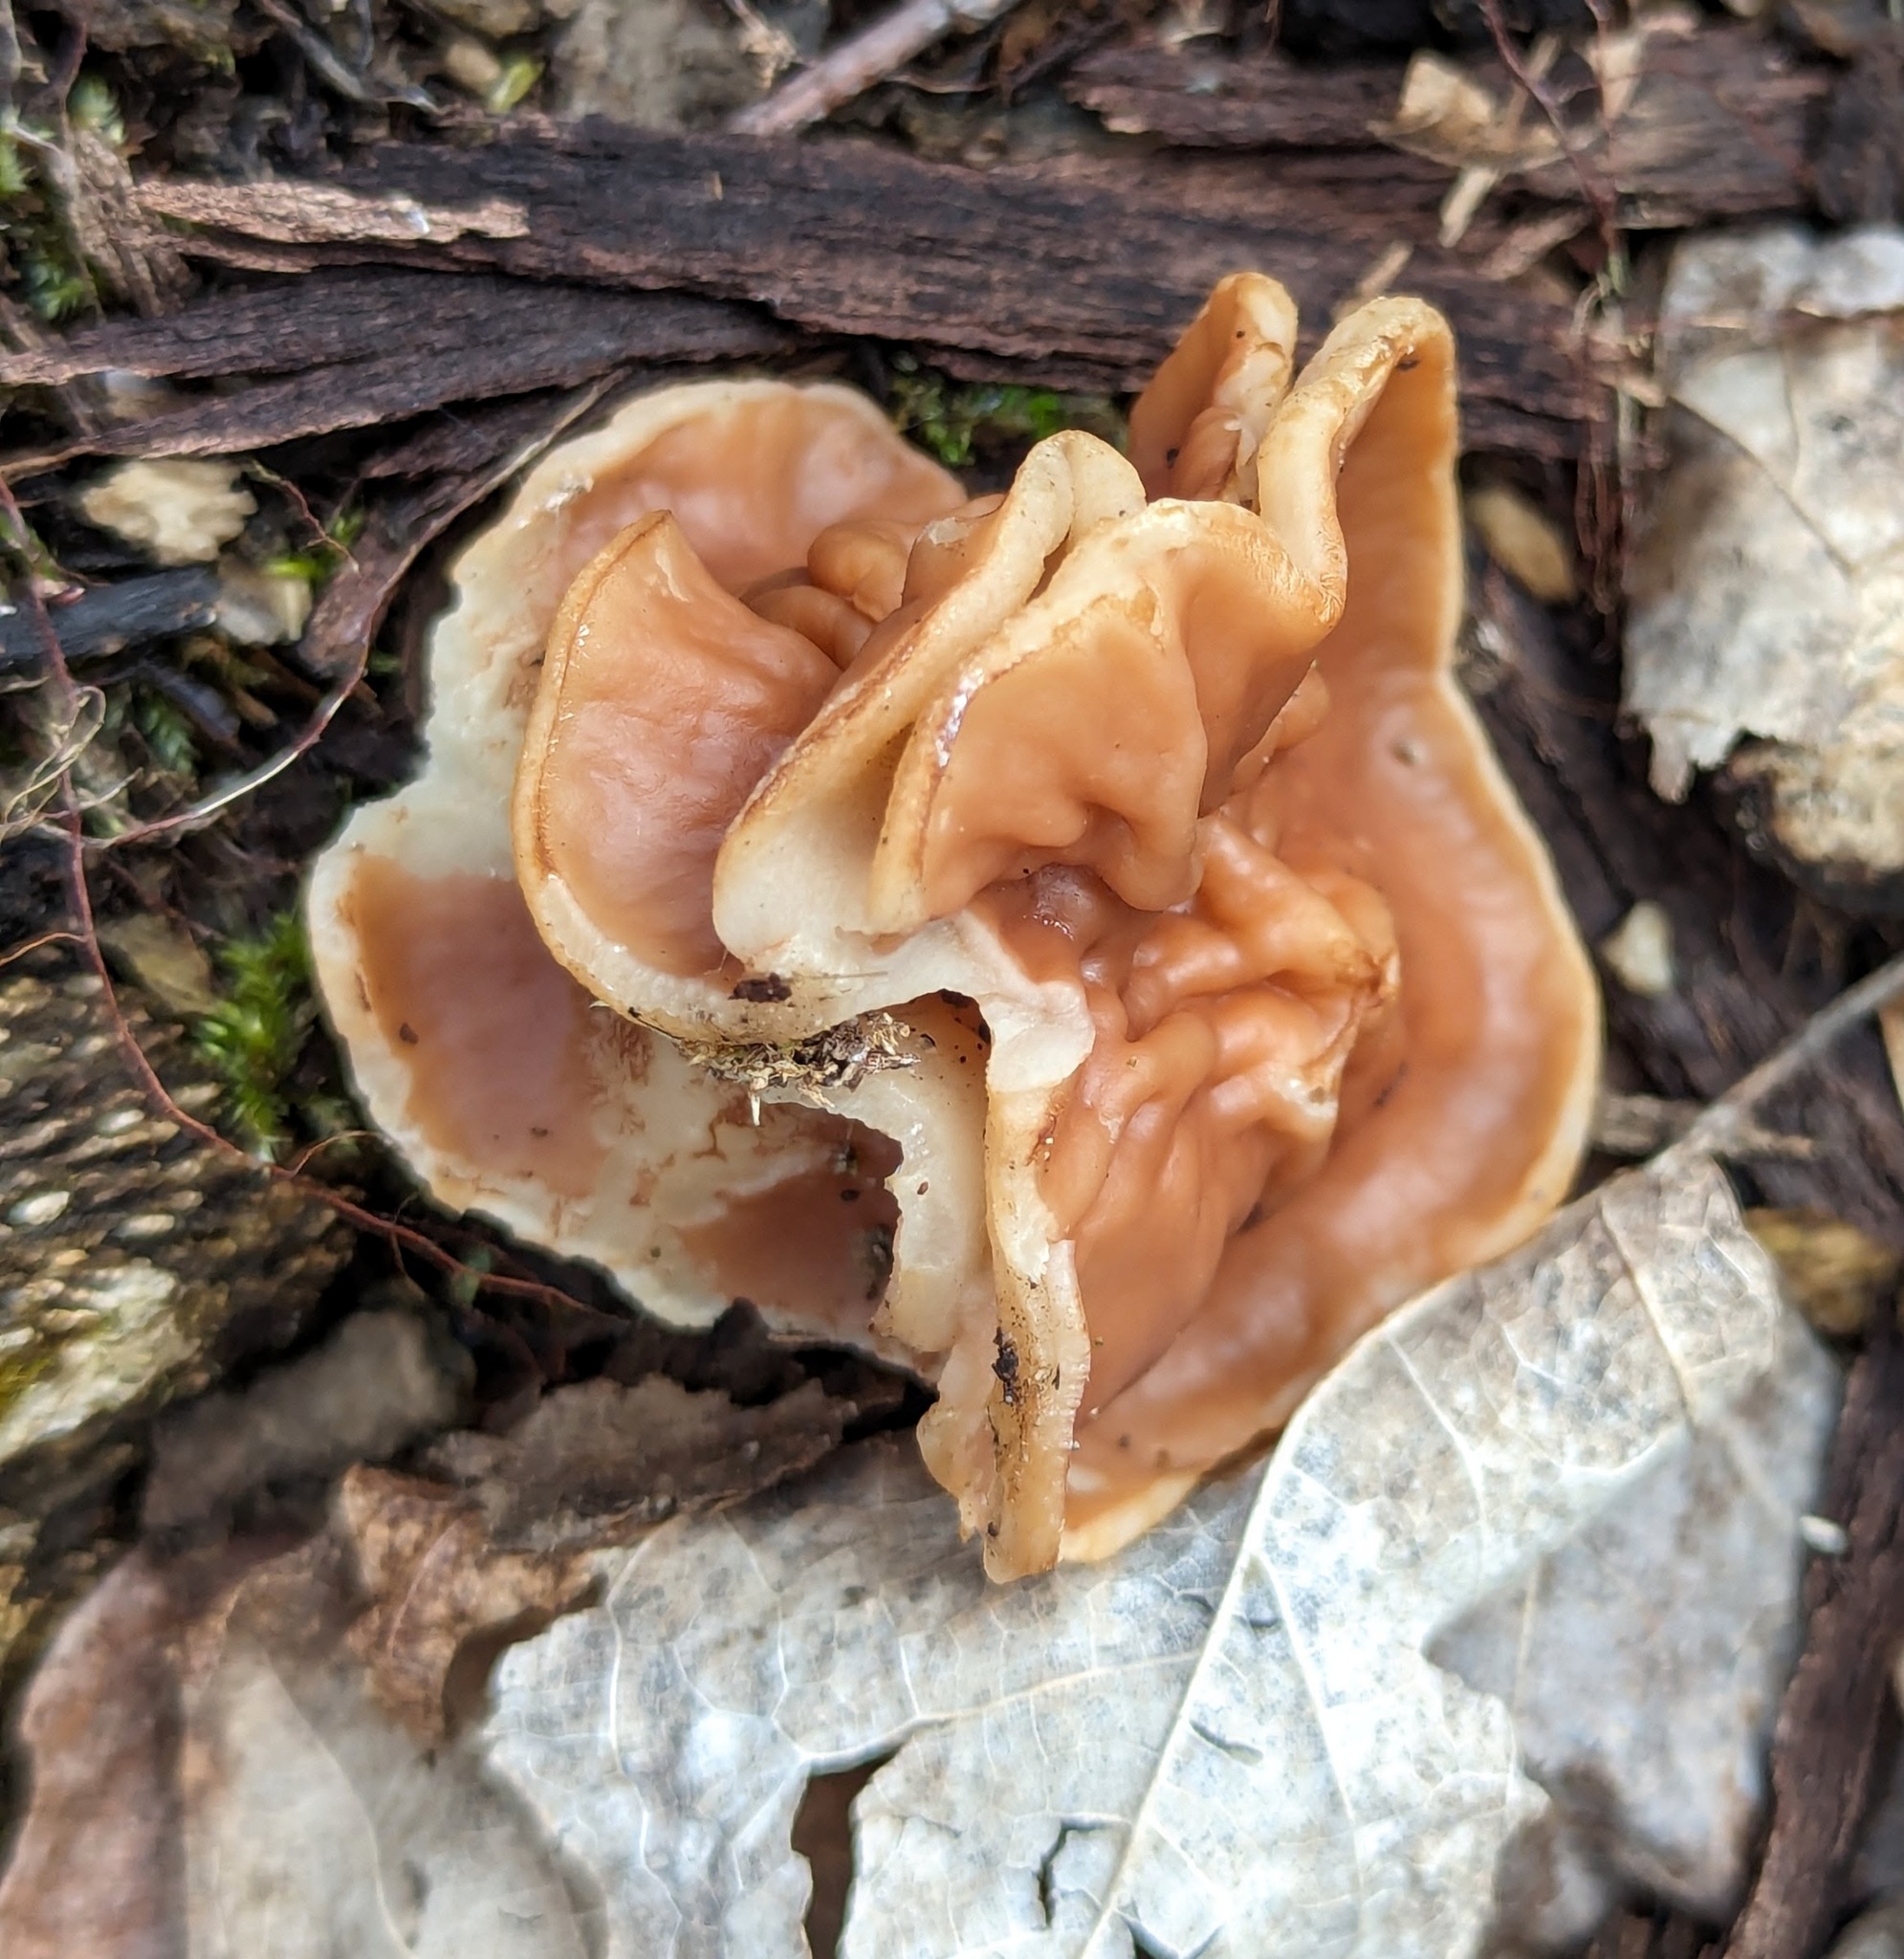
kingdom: Fungi
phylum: Ascomycota
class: Pezizomycetes
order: Pezizales
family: Discinaceae
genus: Discina
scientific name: Discina brunnea
